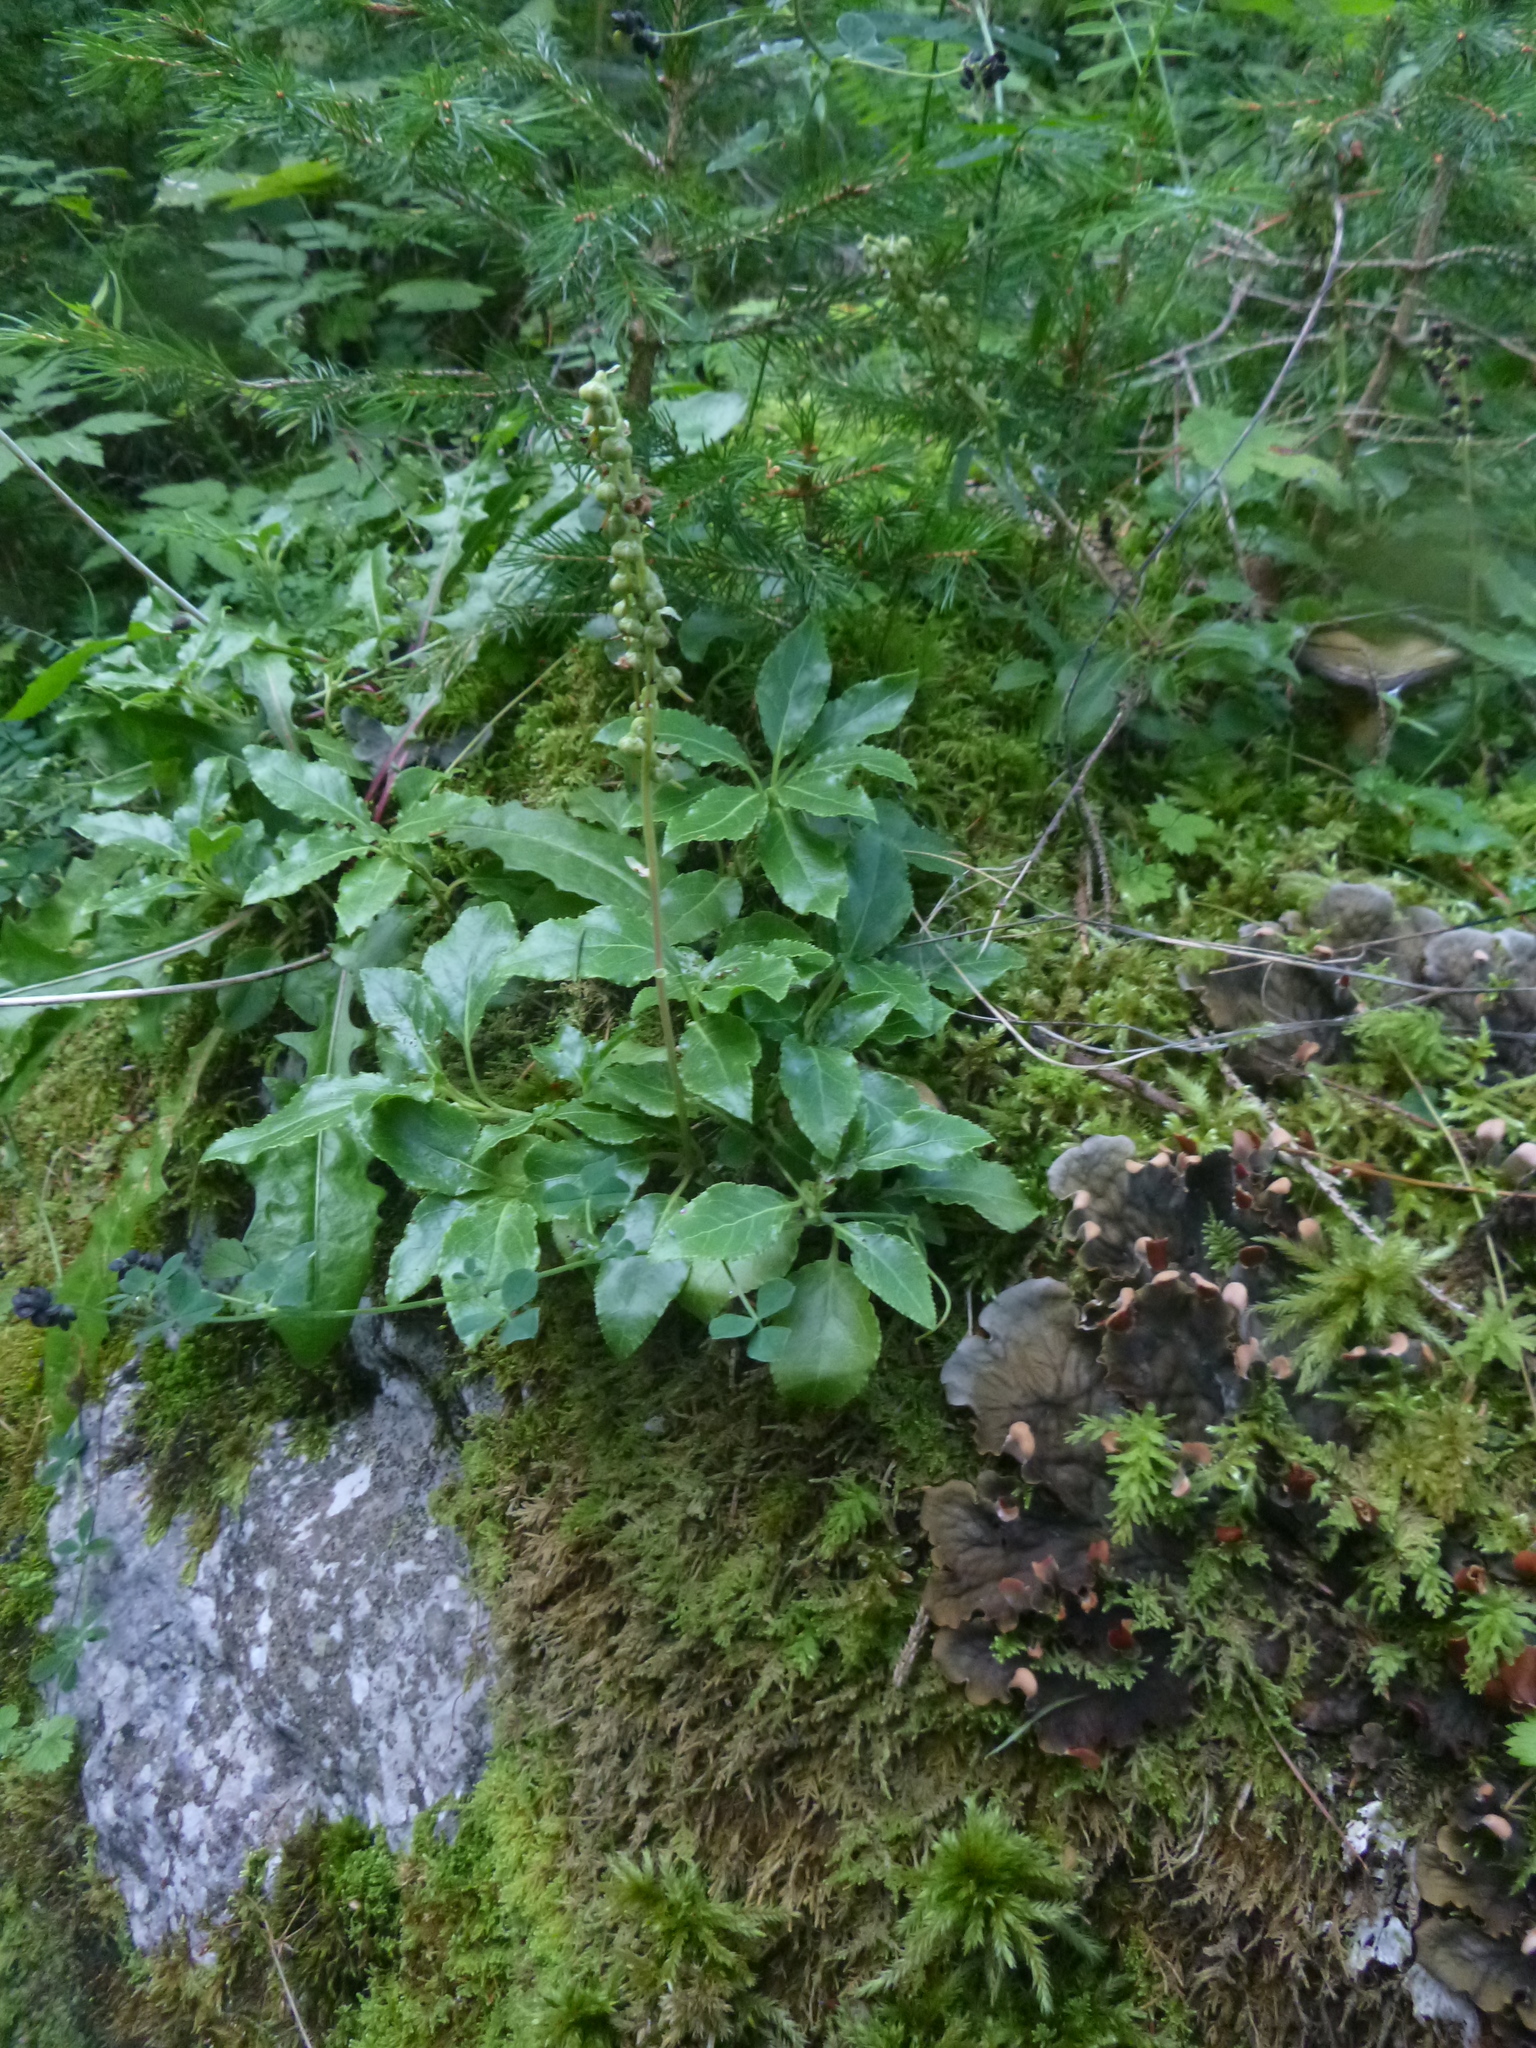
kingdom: Plantae
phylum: Tracheophyta
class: Magnoliopsida
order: Ericales
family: Ericaceae
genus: Orthilia
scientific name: Orthilia secunda
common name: One-sided orthilia
